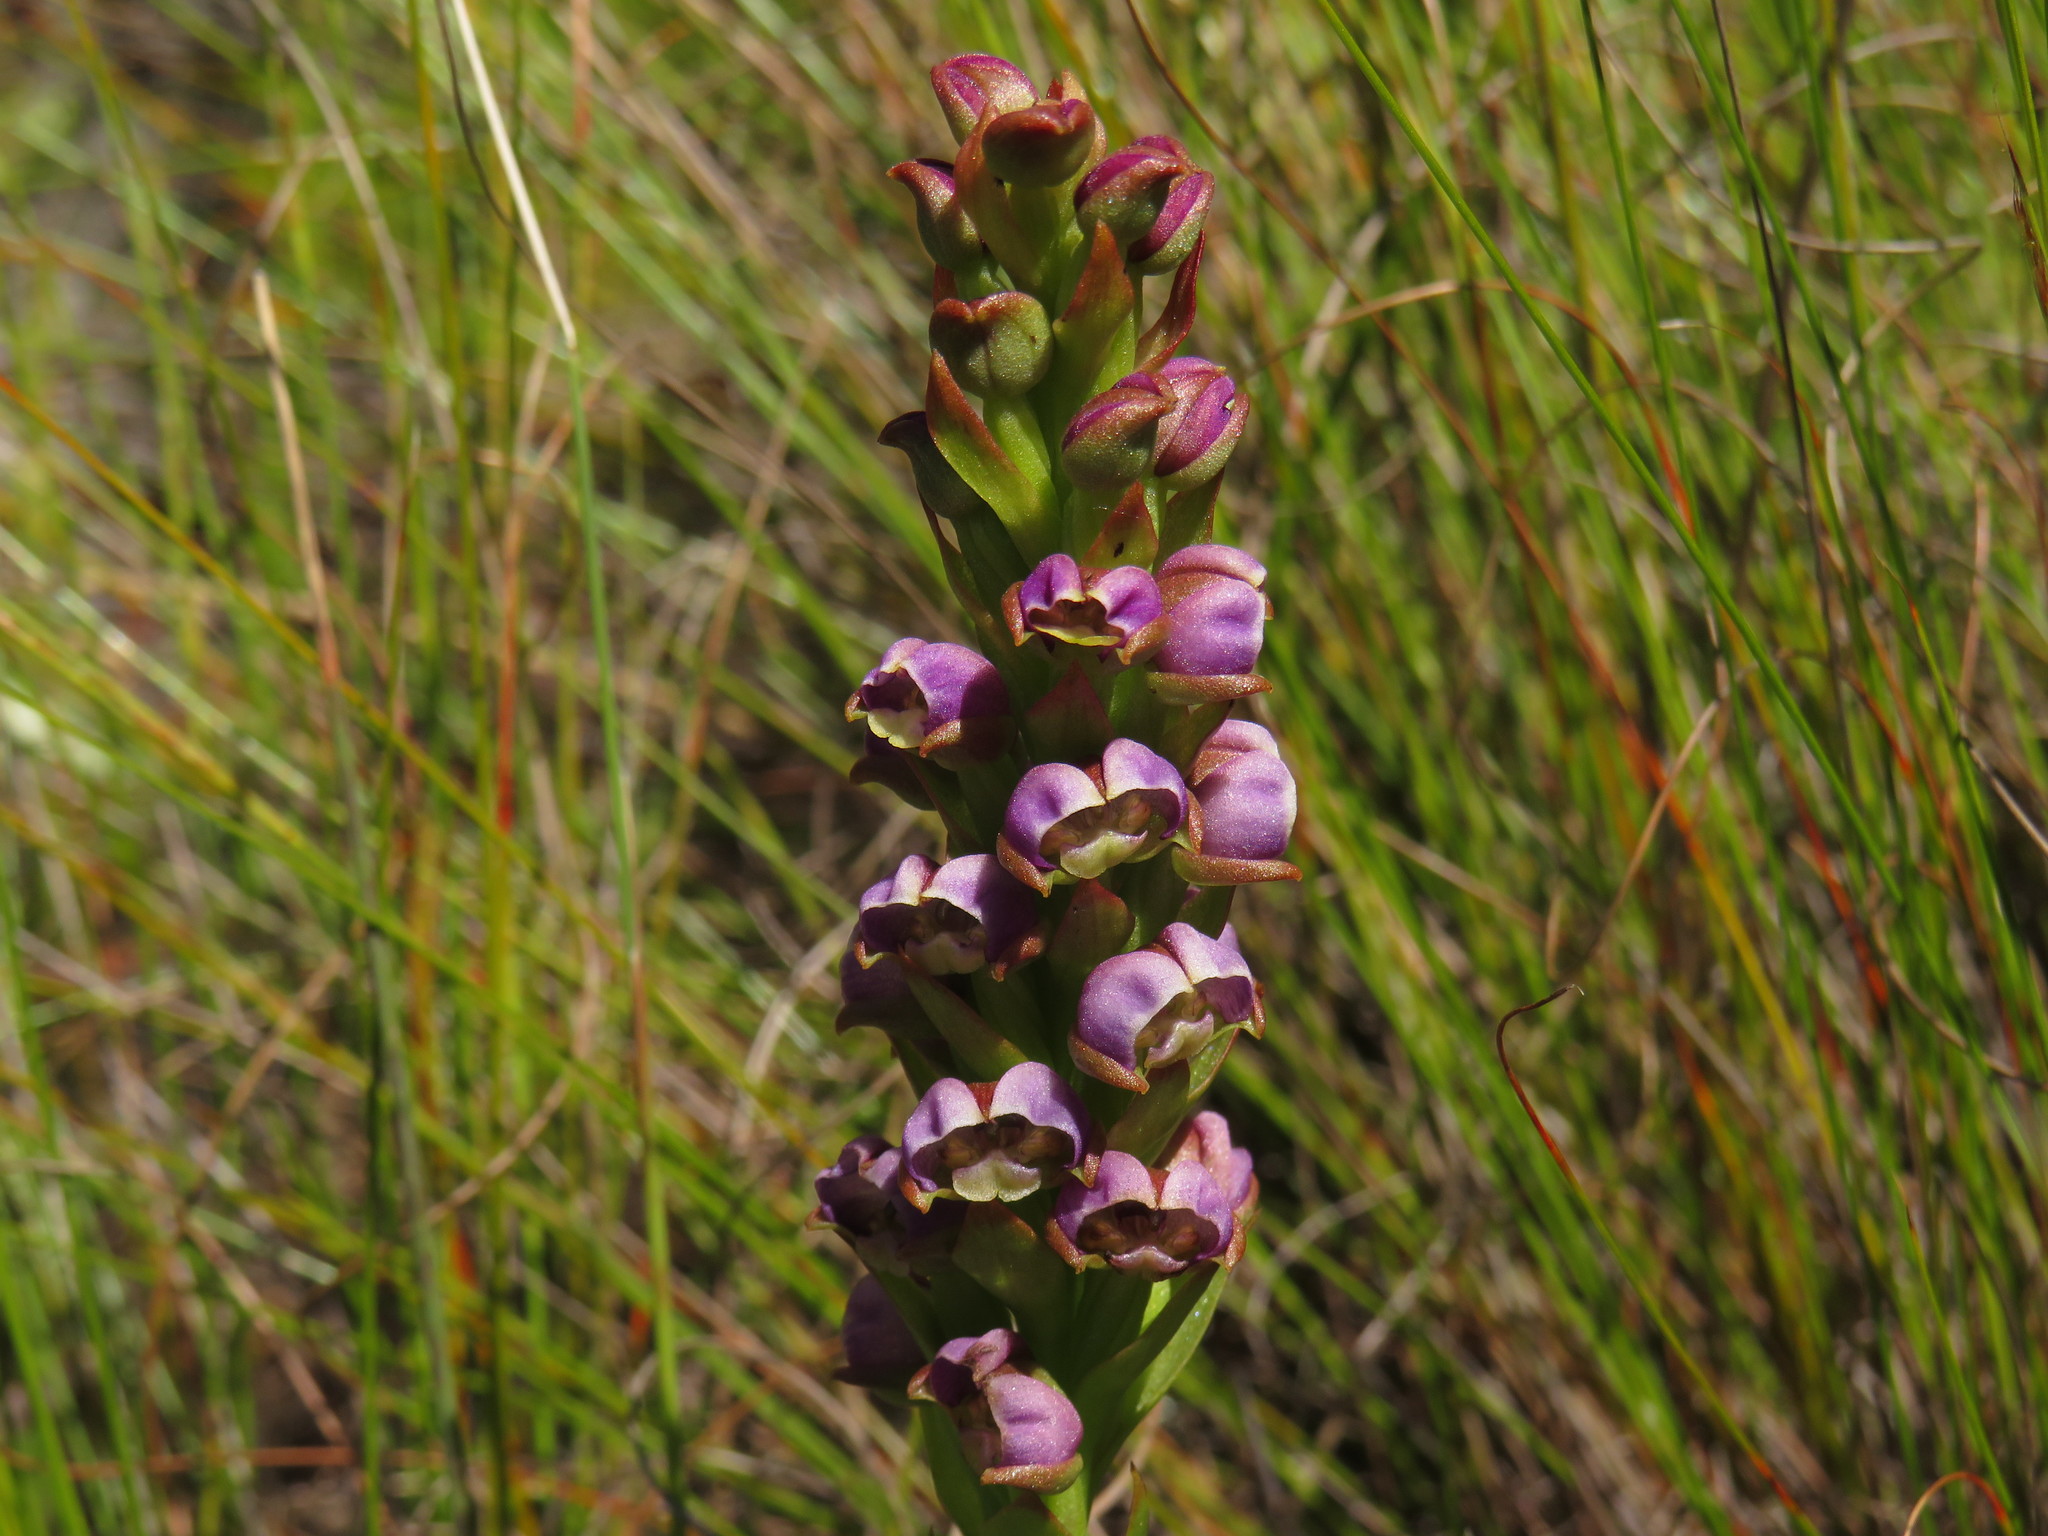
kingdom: Plantae
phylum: Tracheophyta
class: Liliopsida
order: Asparagales
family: Orchidaceae
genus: Evotella
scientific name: Evotella carnosa
